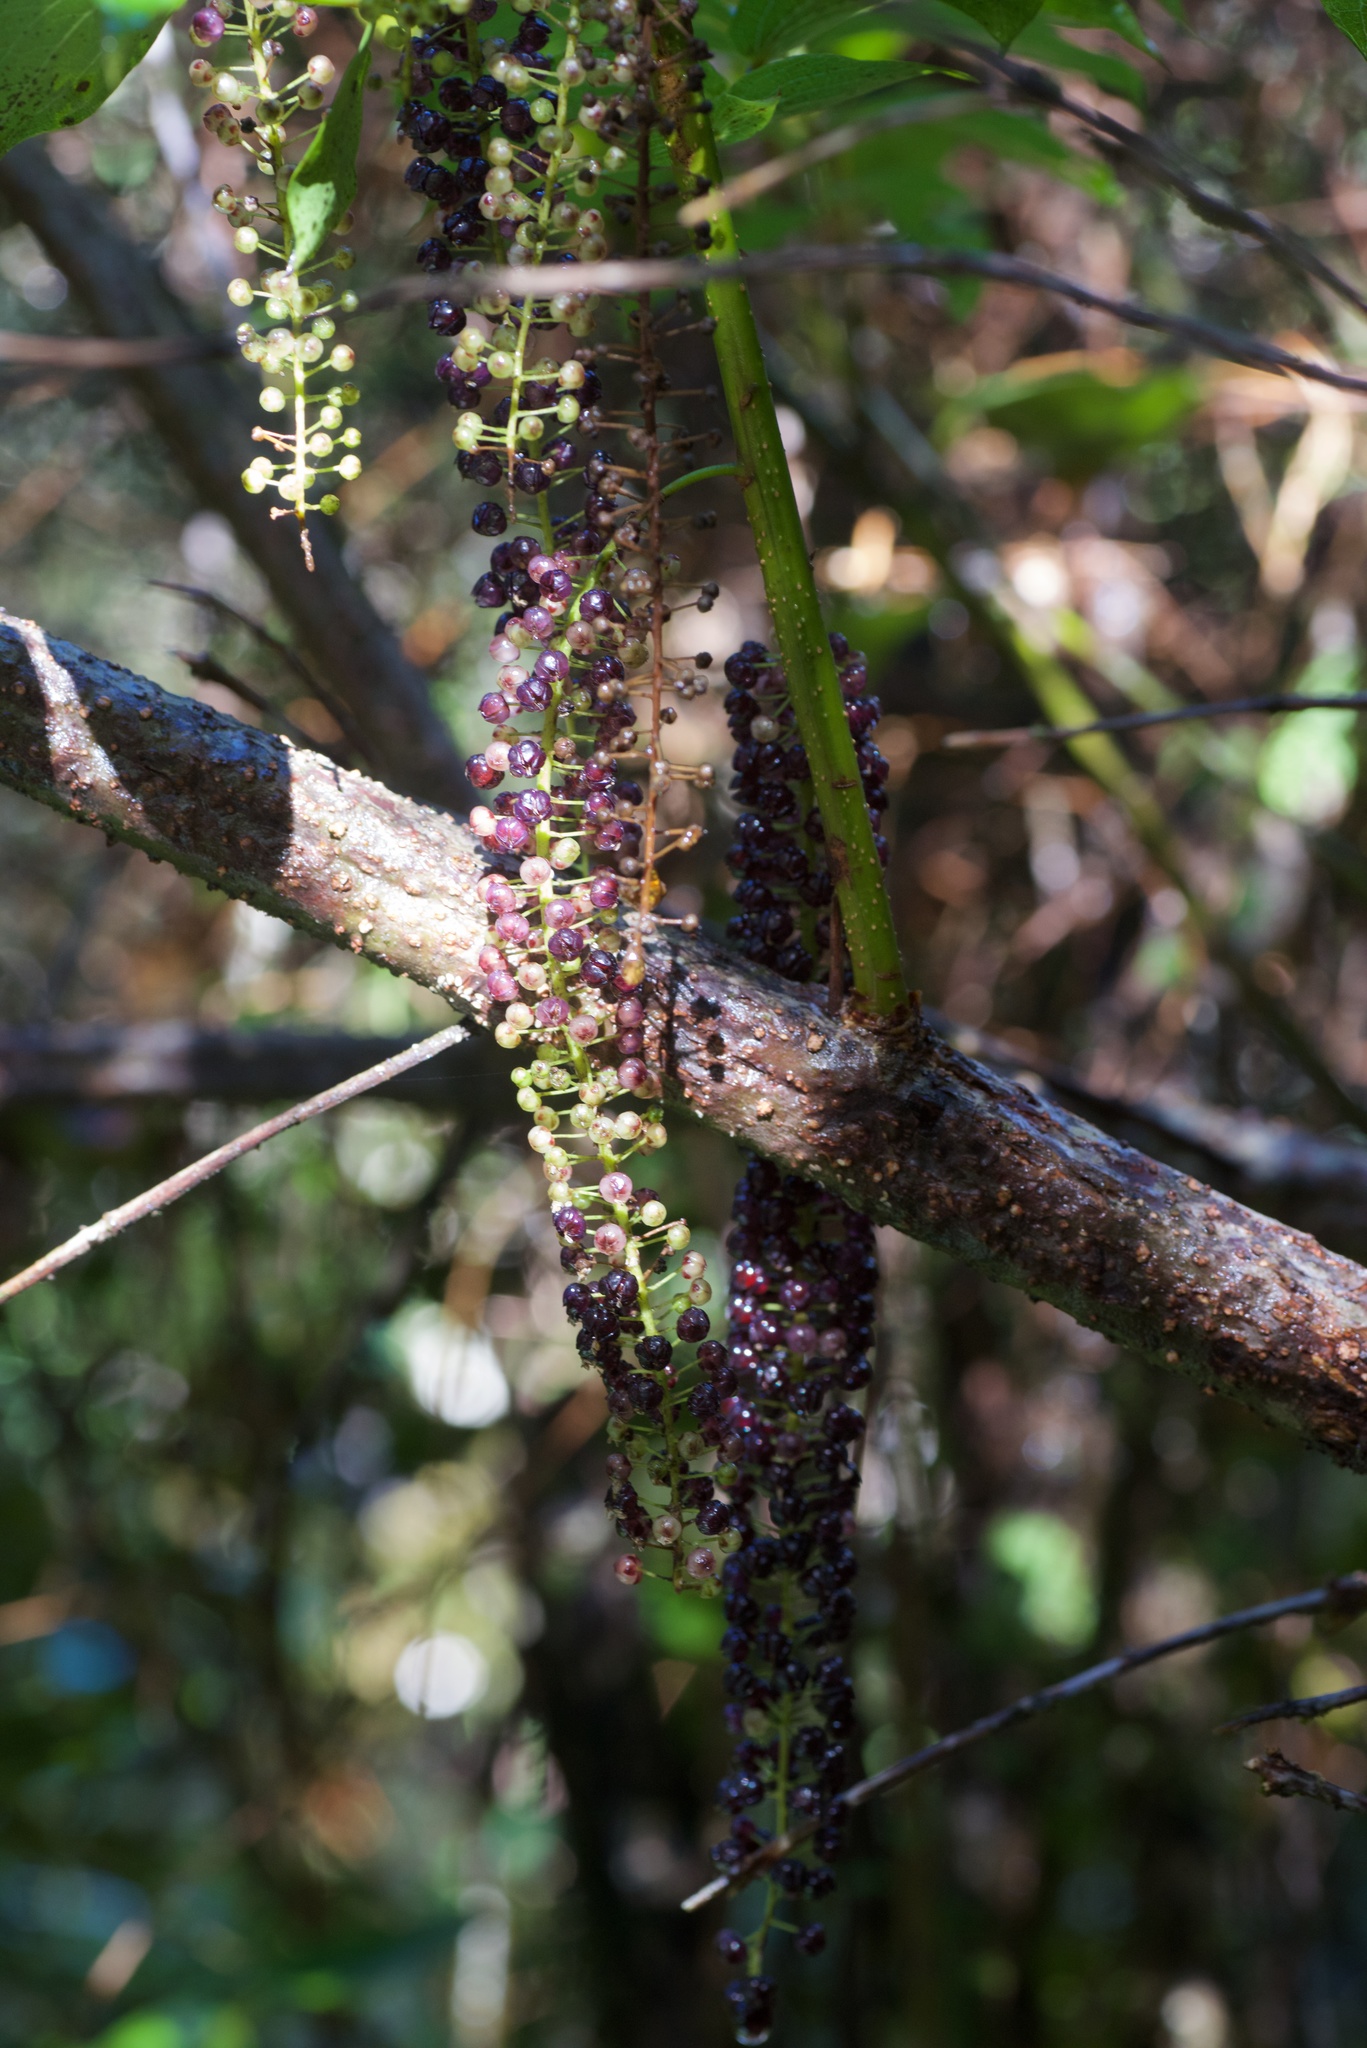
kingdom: Plantae
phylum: Tracheophyta
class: Magnoliopsida
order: Cucurbitales
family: Coriariaceae
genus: Coriaria
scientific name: Coriaria arborea
